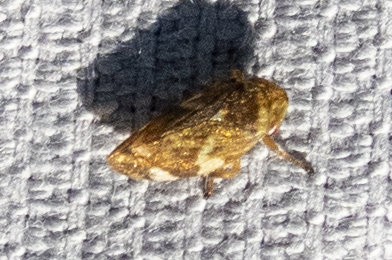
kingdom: Animalia
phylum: Arthropoda
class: Insecta
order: Hemiptera
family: Aphrophoridae
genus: Philaenus
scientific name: Philaenus spumarius
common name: Meadow spittlebug
